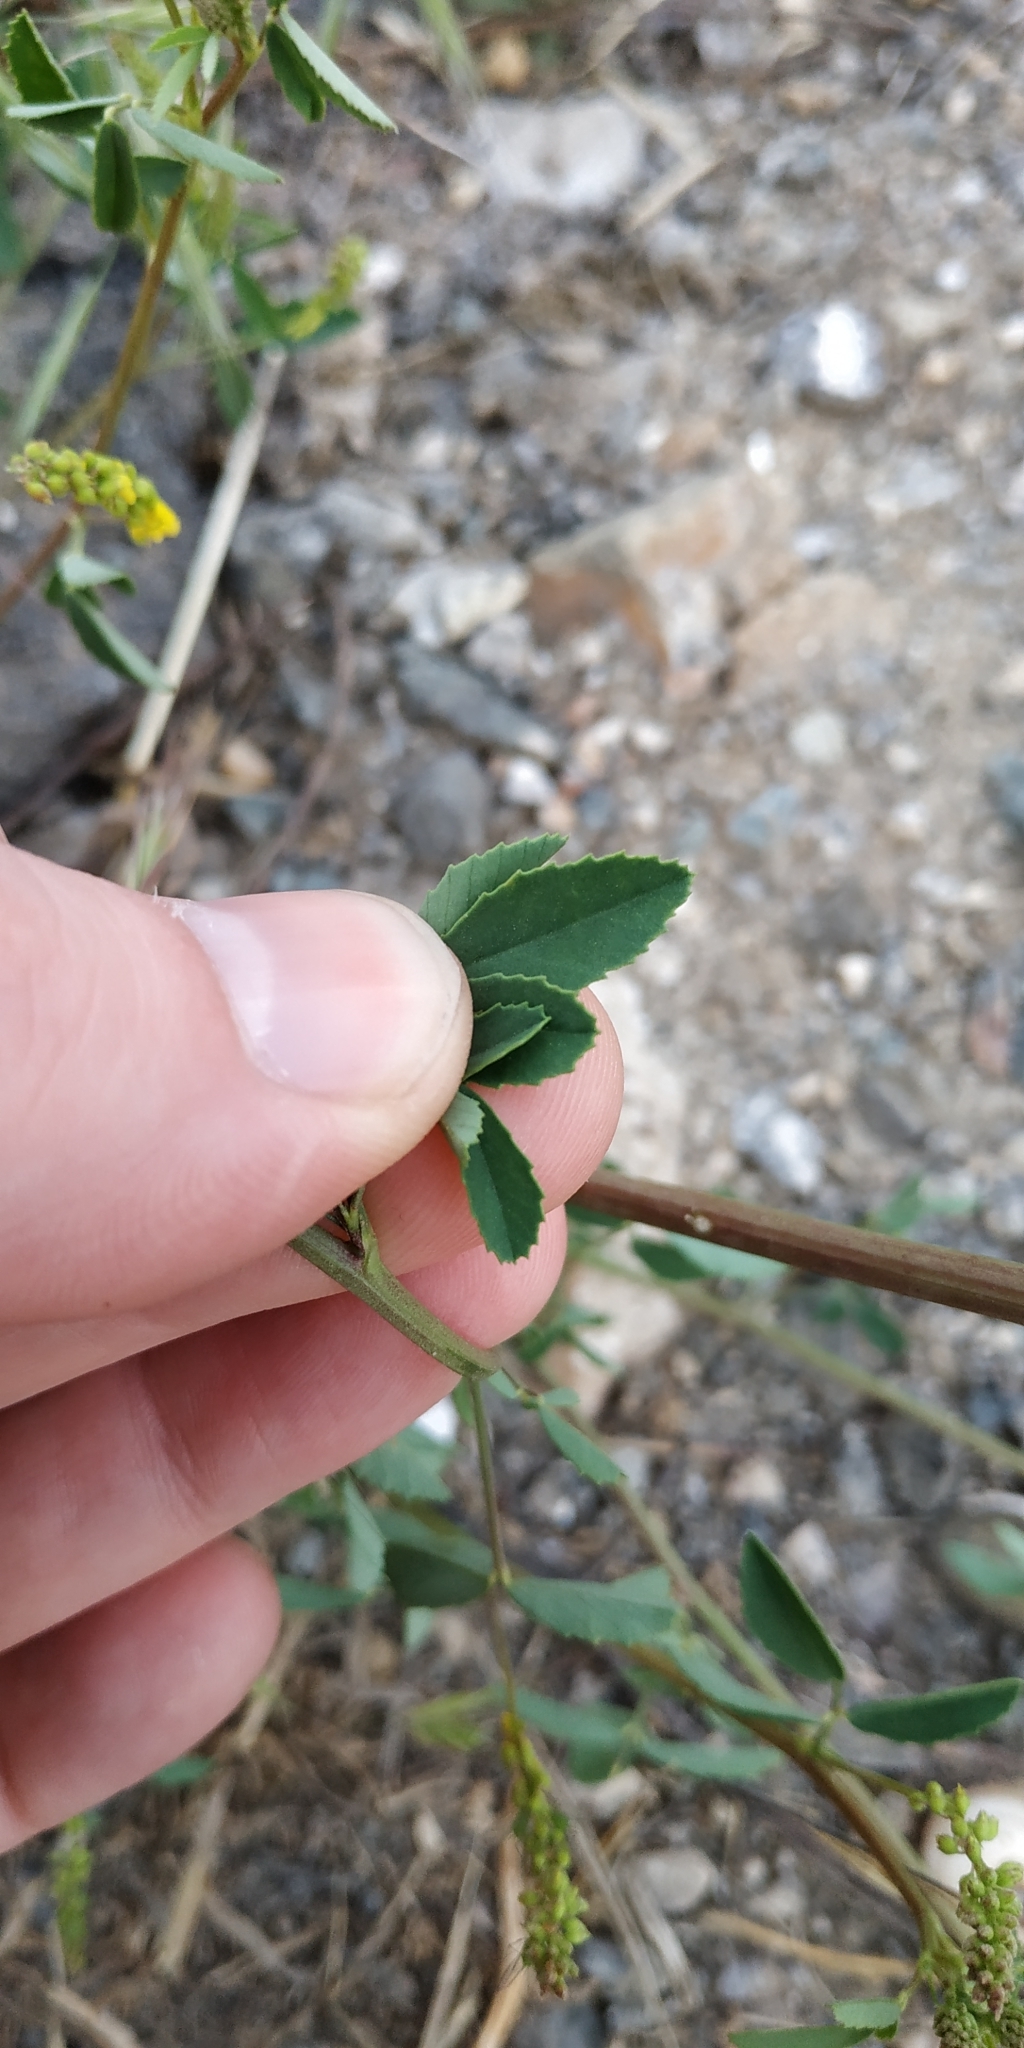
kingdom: Plantae
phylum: Tracheophyta
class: Magnoliopsida
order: Fabales
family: Fabaceae
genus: Melilotus
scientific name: Melilotus officinalis
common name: Sweetclover
